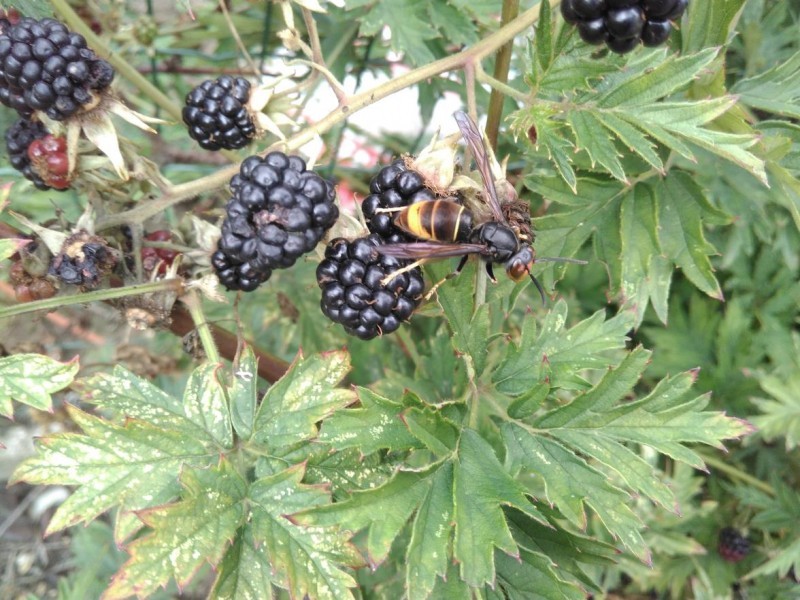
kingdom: Animalia
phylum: Arthropoda
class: Insecta
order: Hymenoptera
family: Vespidae
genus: Vespa
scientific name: Vespa velutina
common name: Asian hornet
